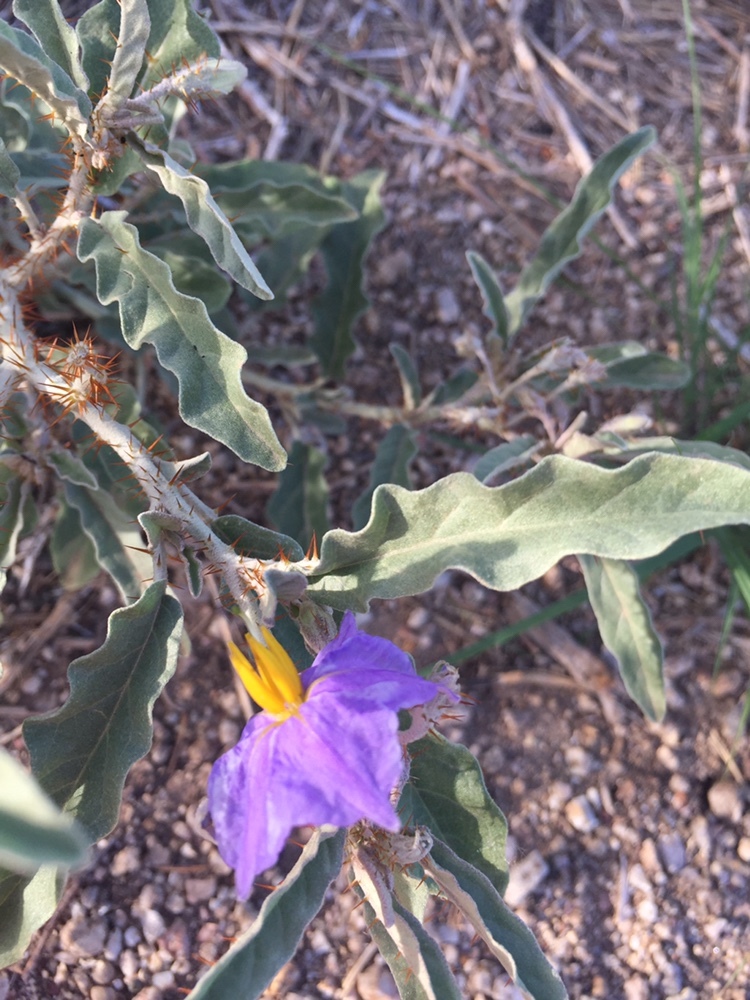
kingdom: Plantae
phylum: Tracheophyta
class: Magnoliopsida
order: Solanales
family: Solanaceae
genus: Solanum
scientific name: Solanum elaeagnifolium
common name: Silverleaf nightshade
